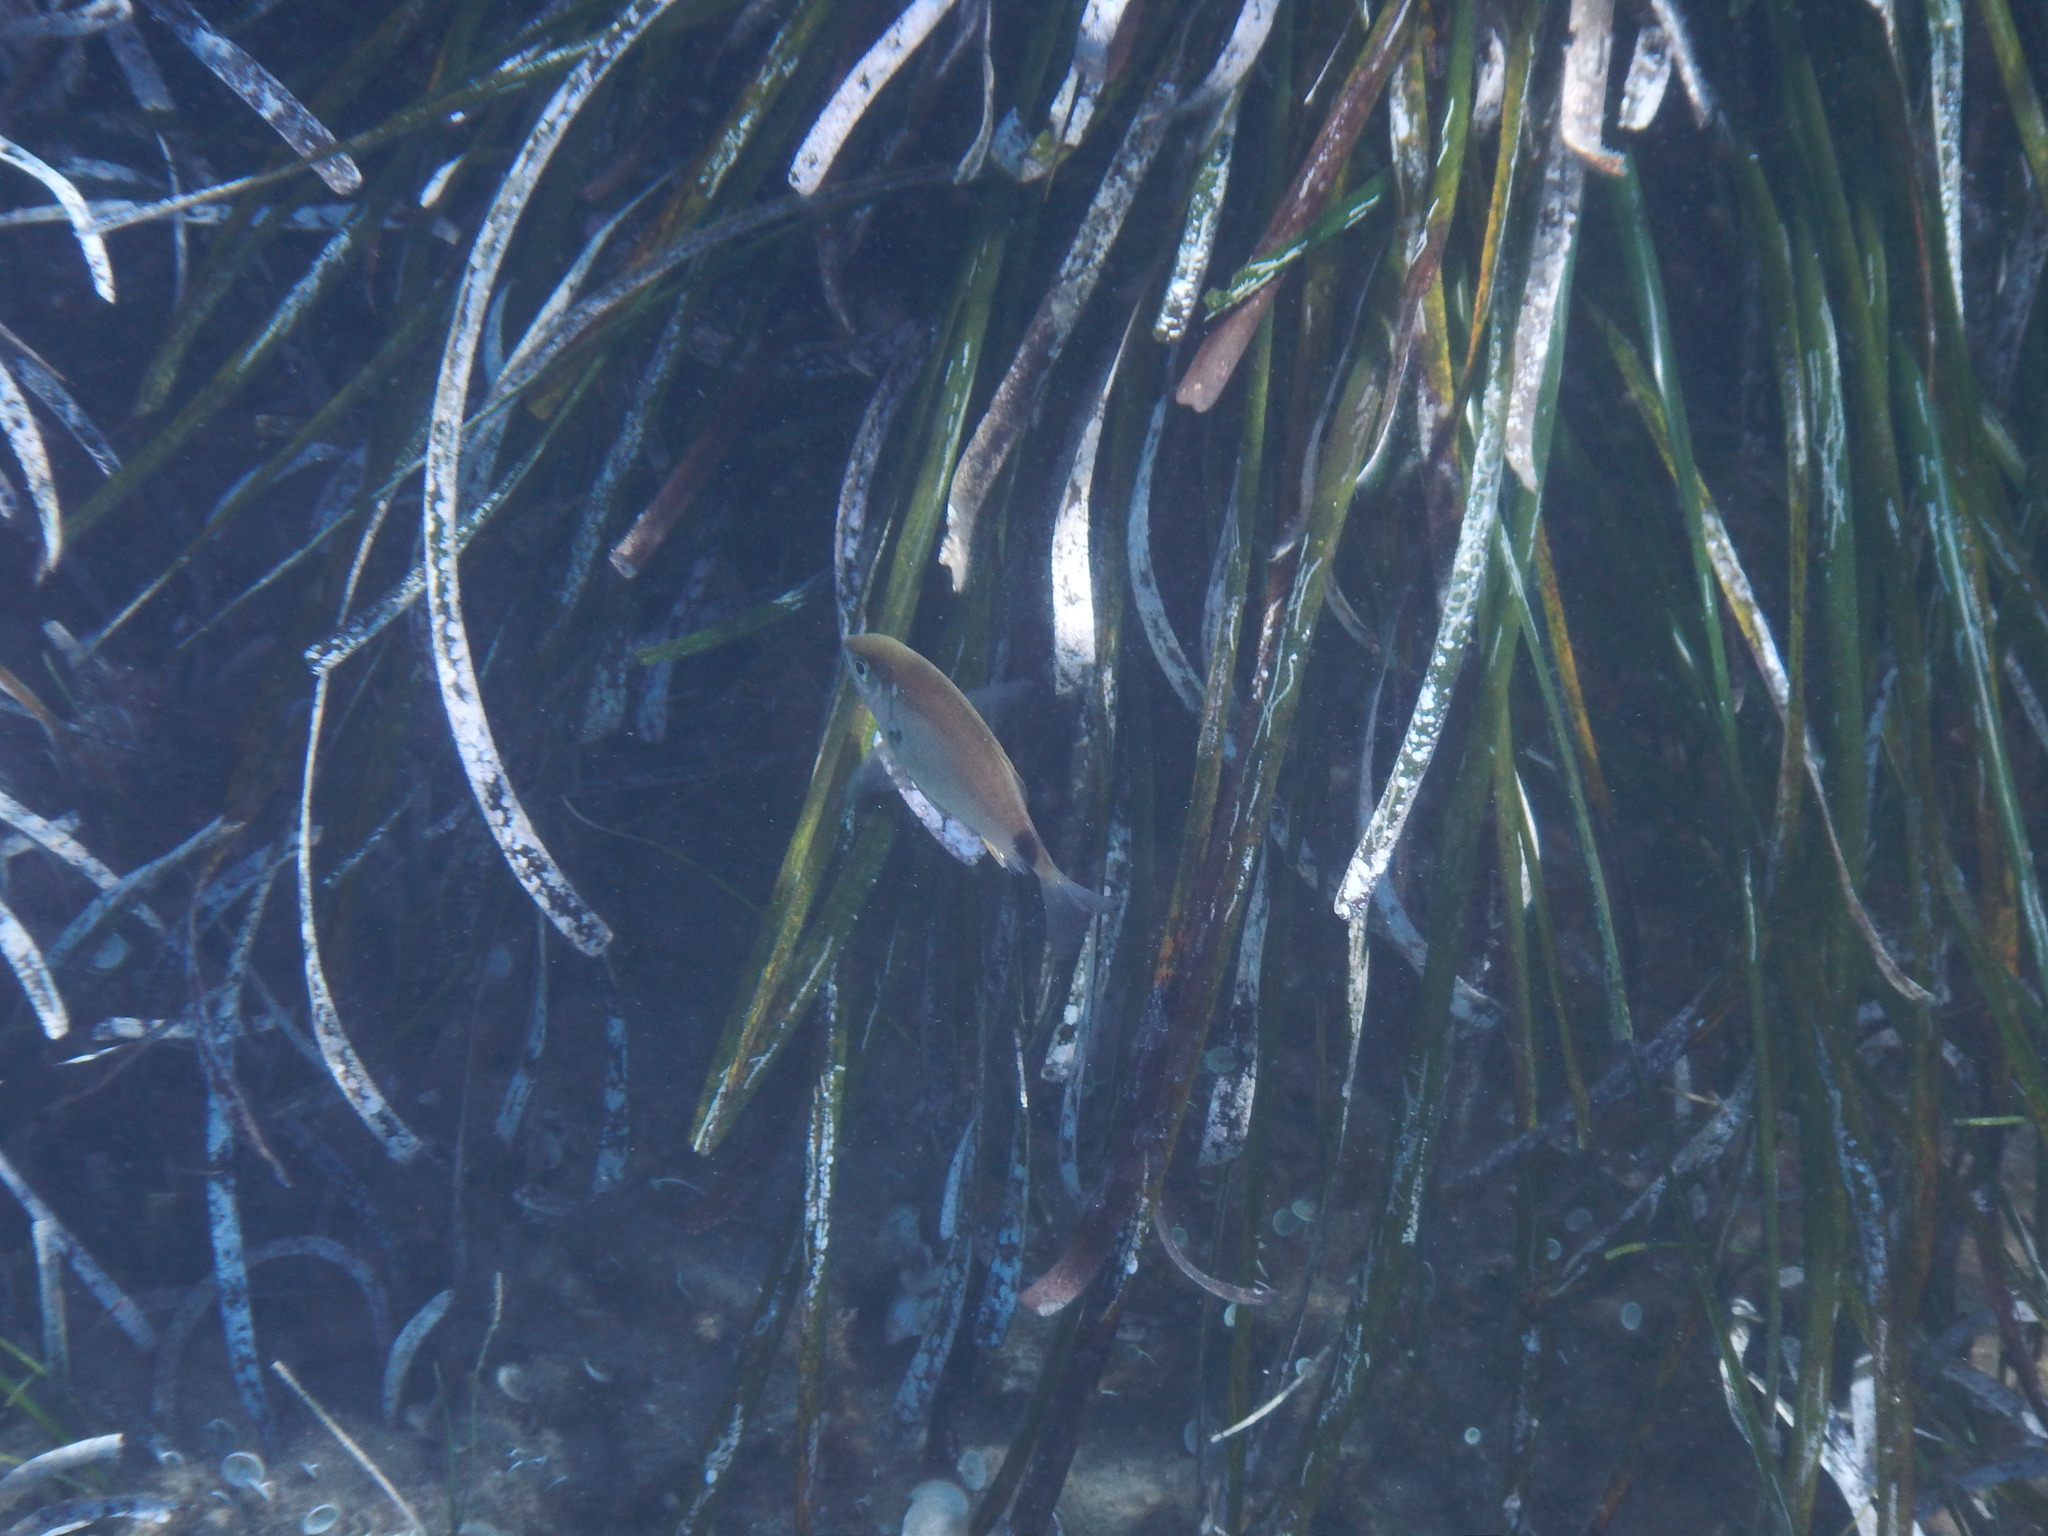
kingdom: Animalia
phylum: Chordata
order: Perciformes
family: Sparidae
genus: Diplodus
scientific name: Diplodus annularis
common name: Annular seabream
